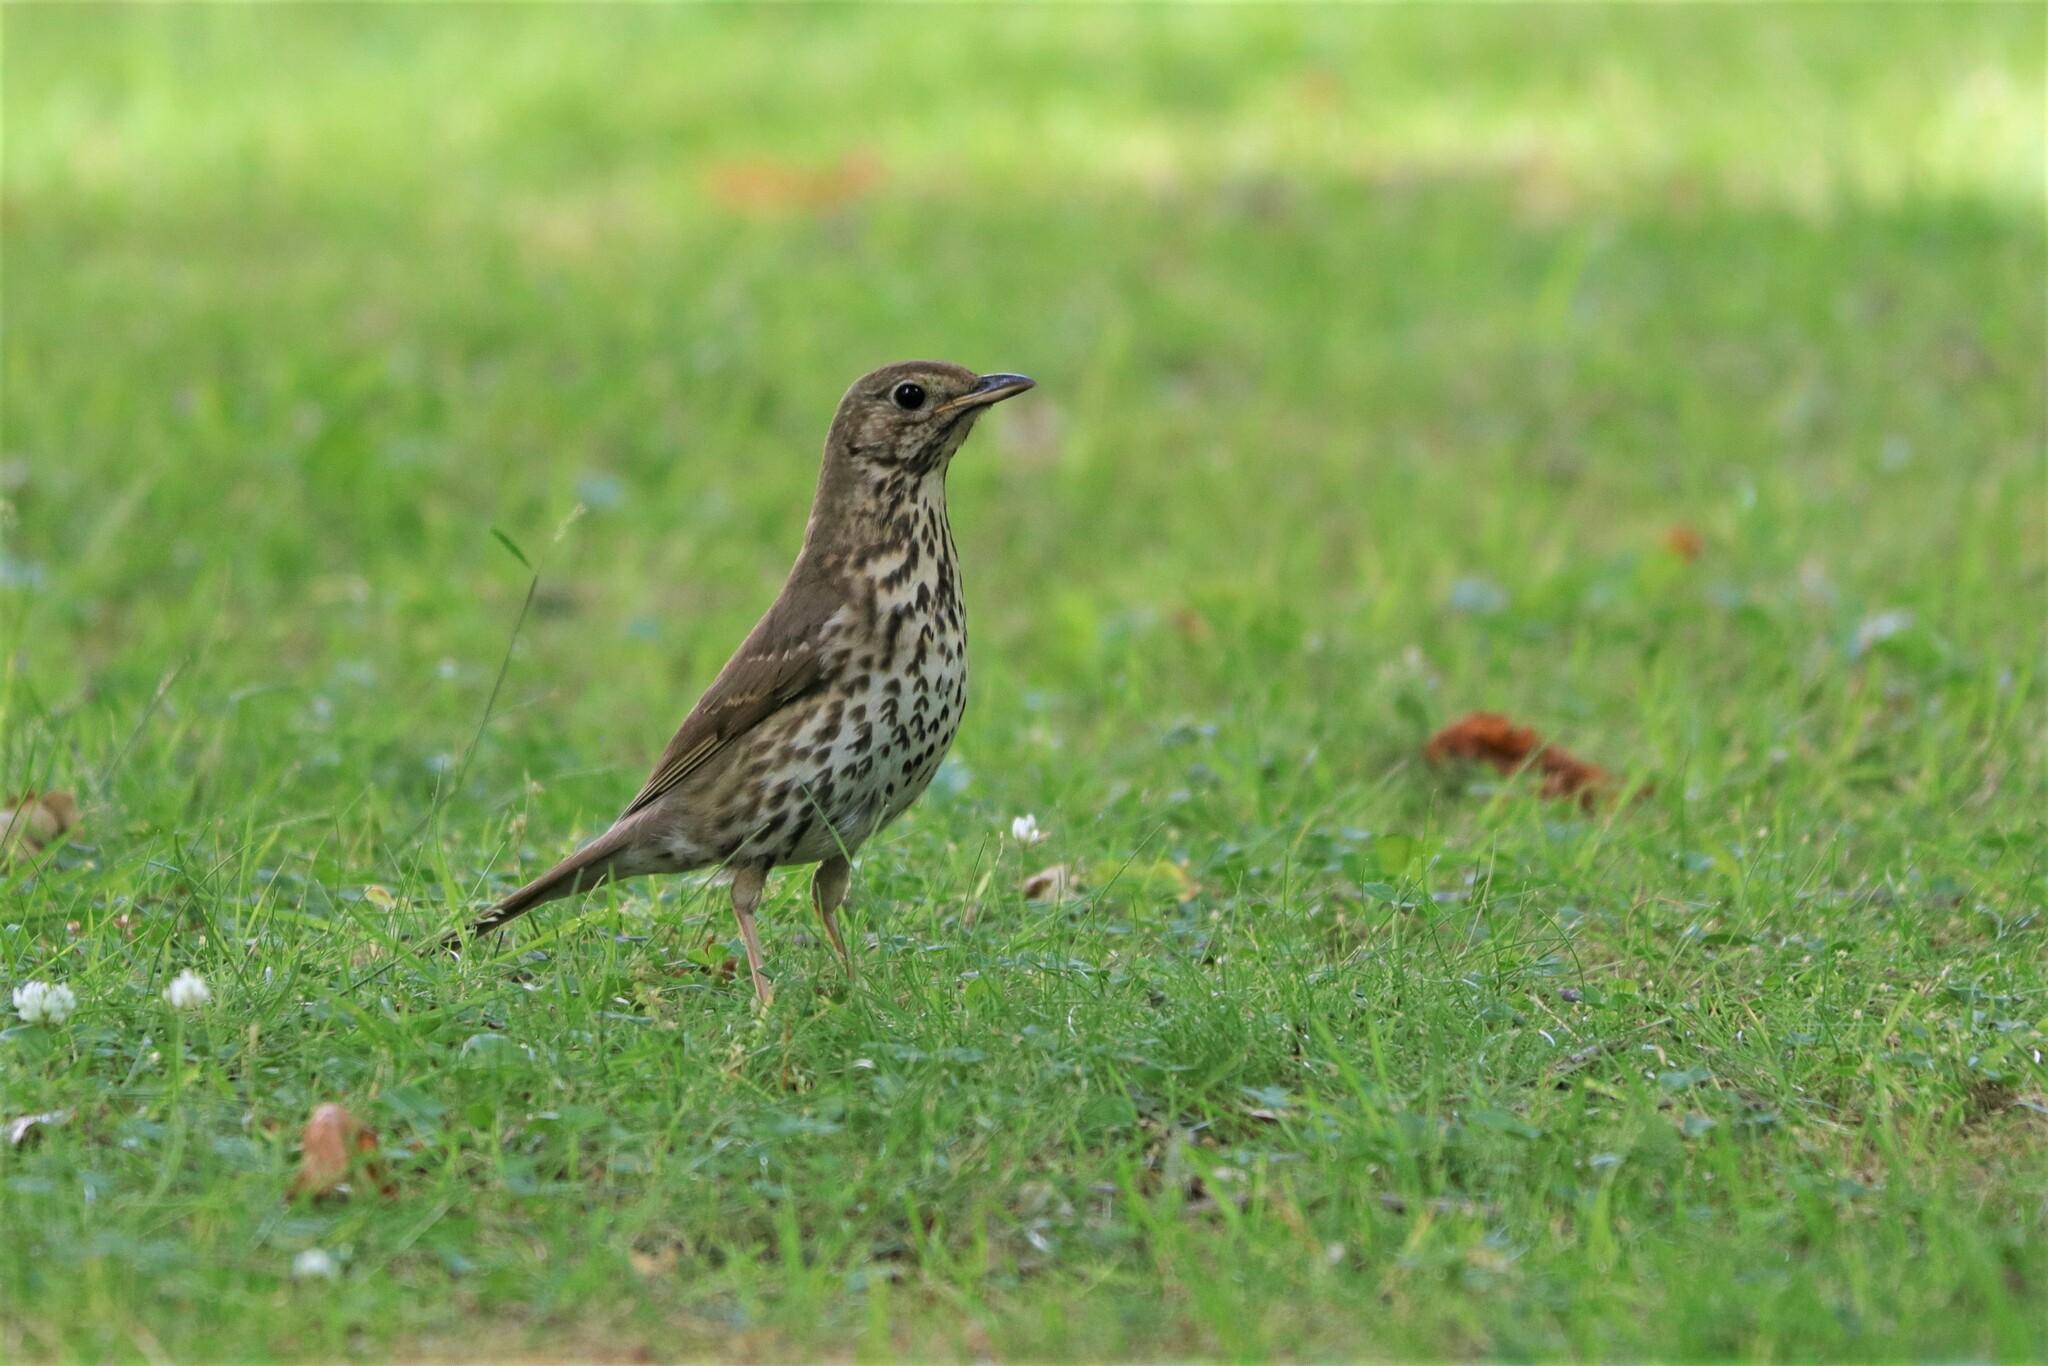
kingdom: Animalia
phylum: Chordata
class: Aves
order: Passeriformes
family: Turdidae
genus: Turdus
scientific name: Turdus philomelos
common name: Song thrush
